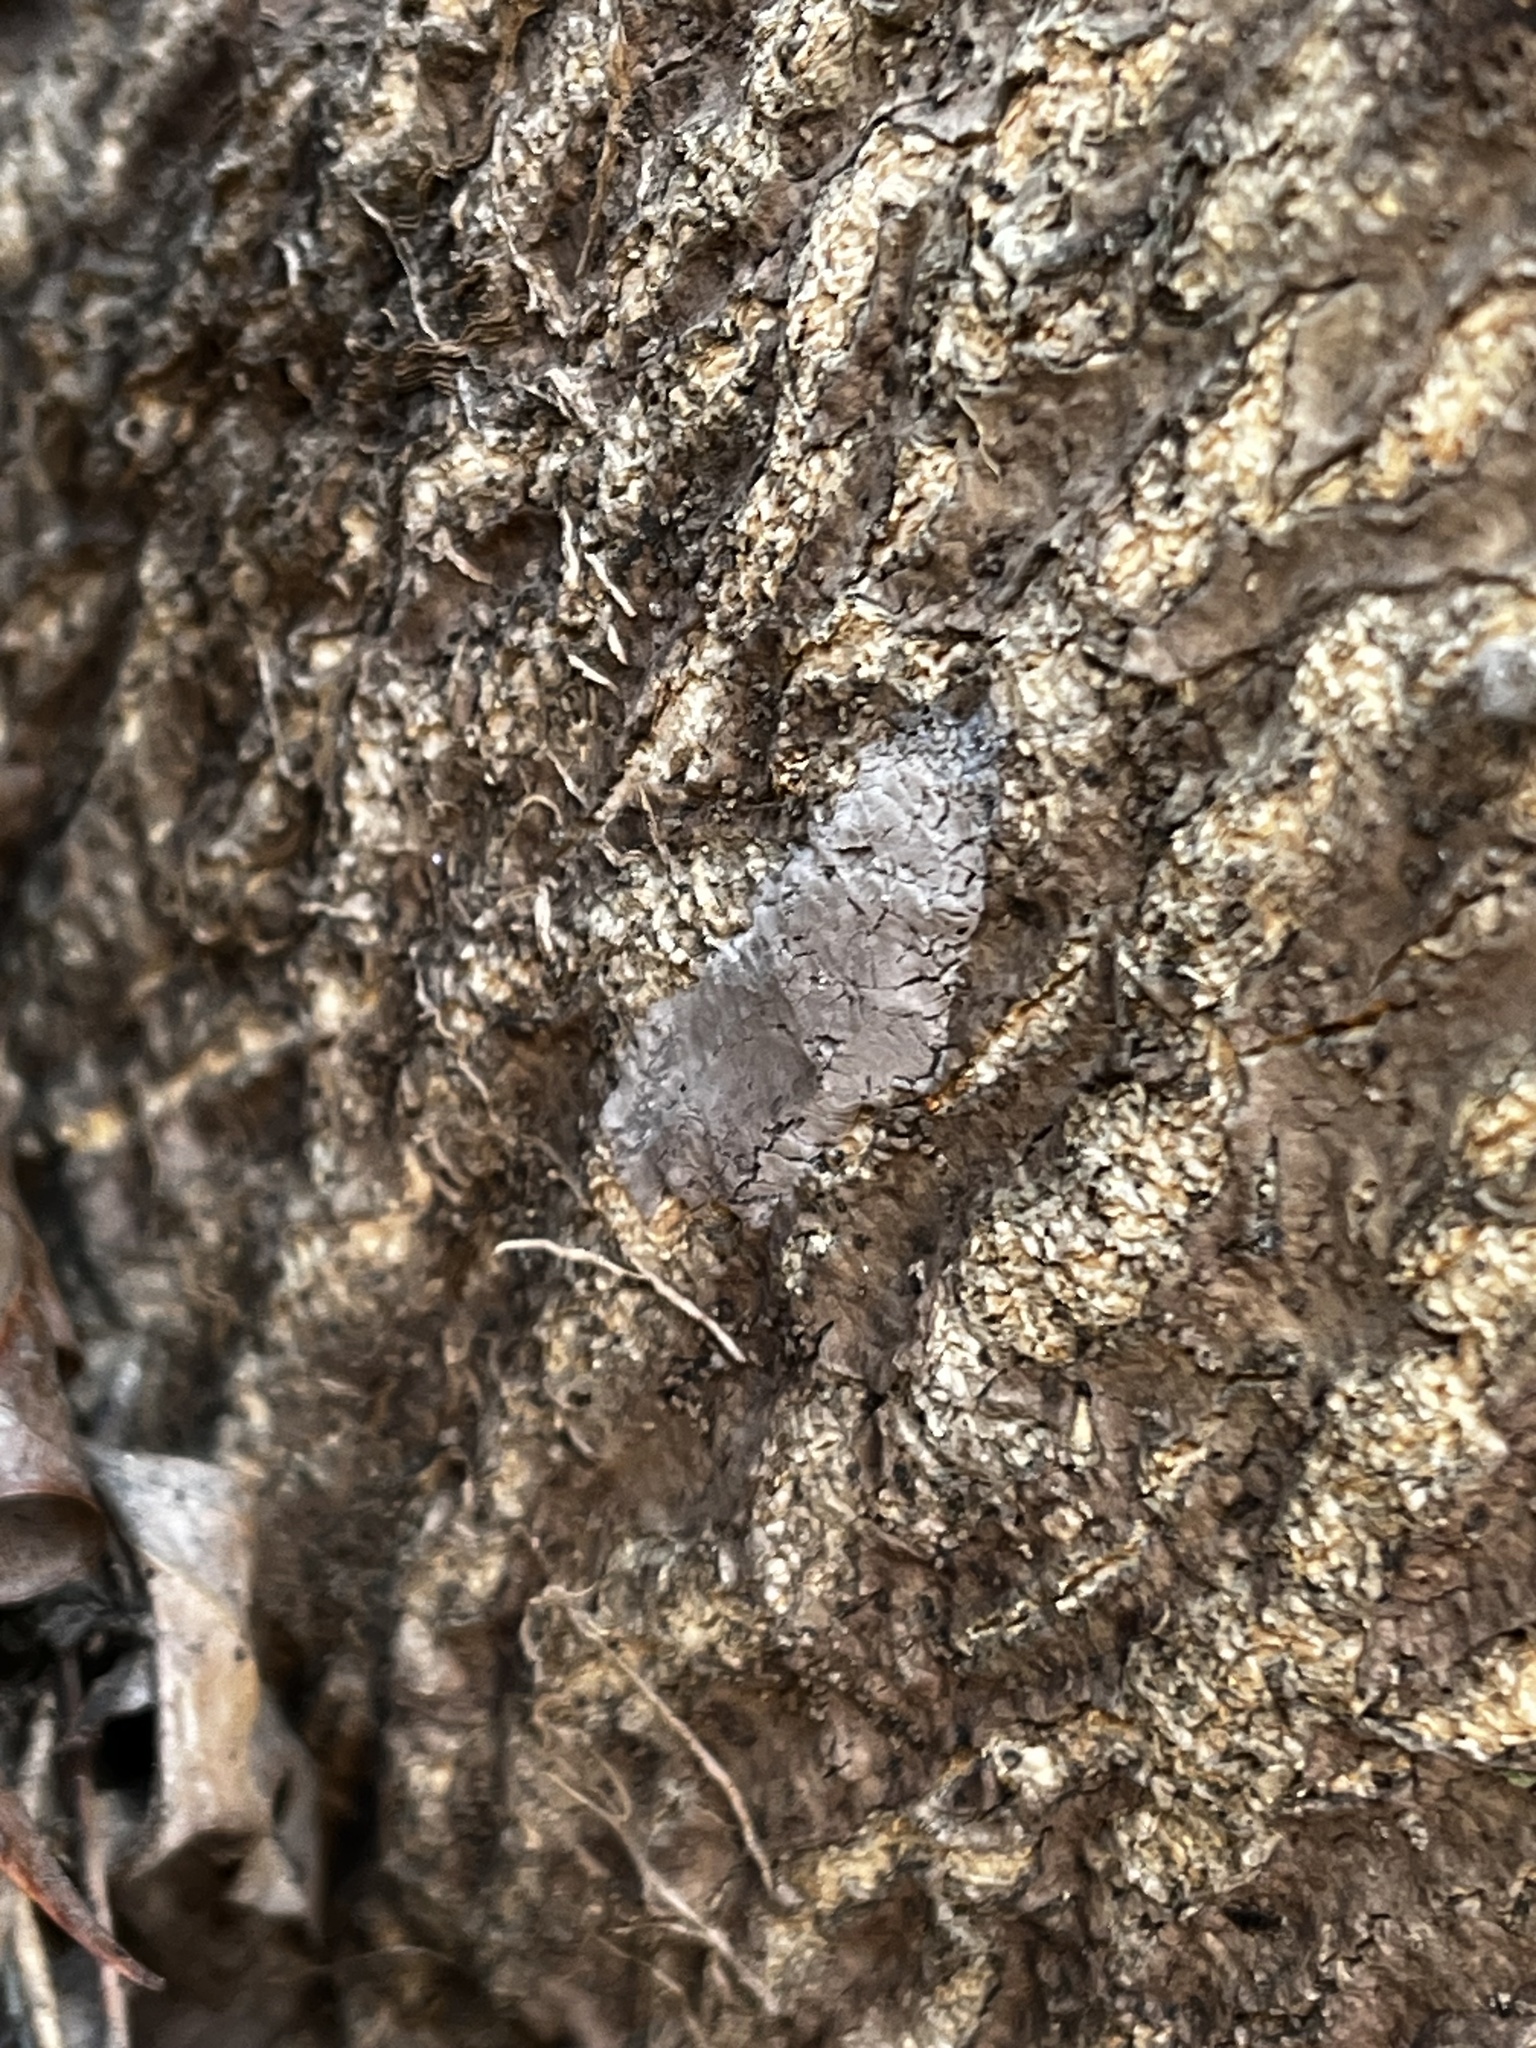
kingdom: Animalia
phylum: Arthropoda
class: Insecta
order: Hemiptera
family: Fulgoridae
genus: Lycorma
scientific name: Lycorma delicatula
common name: Spotted lanternfly
